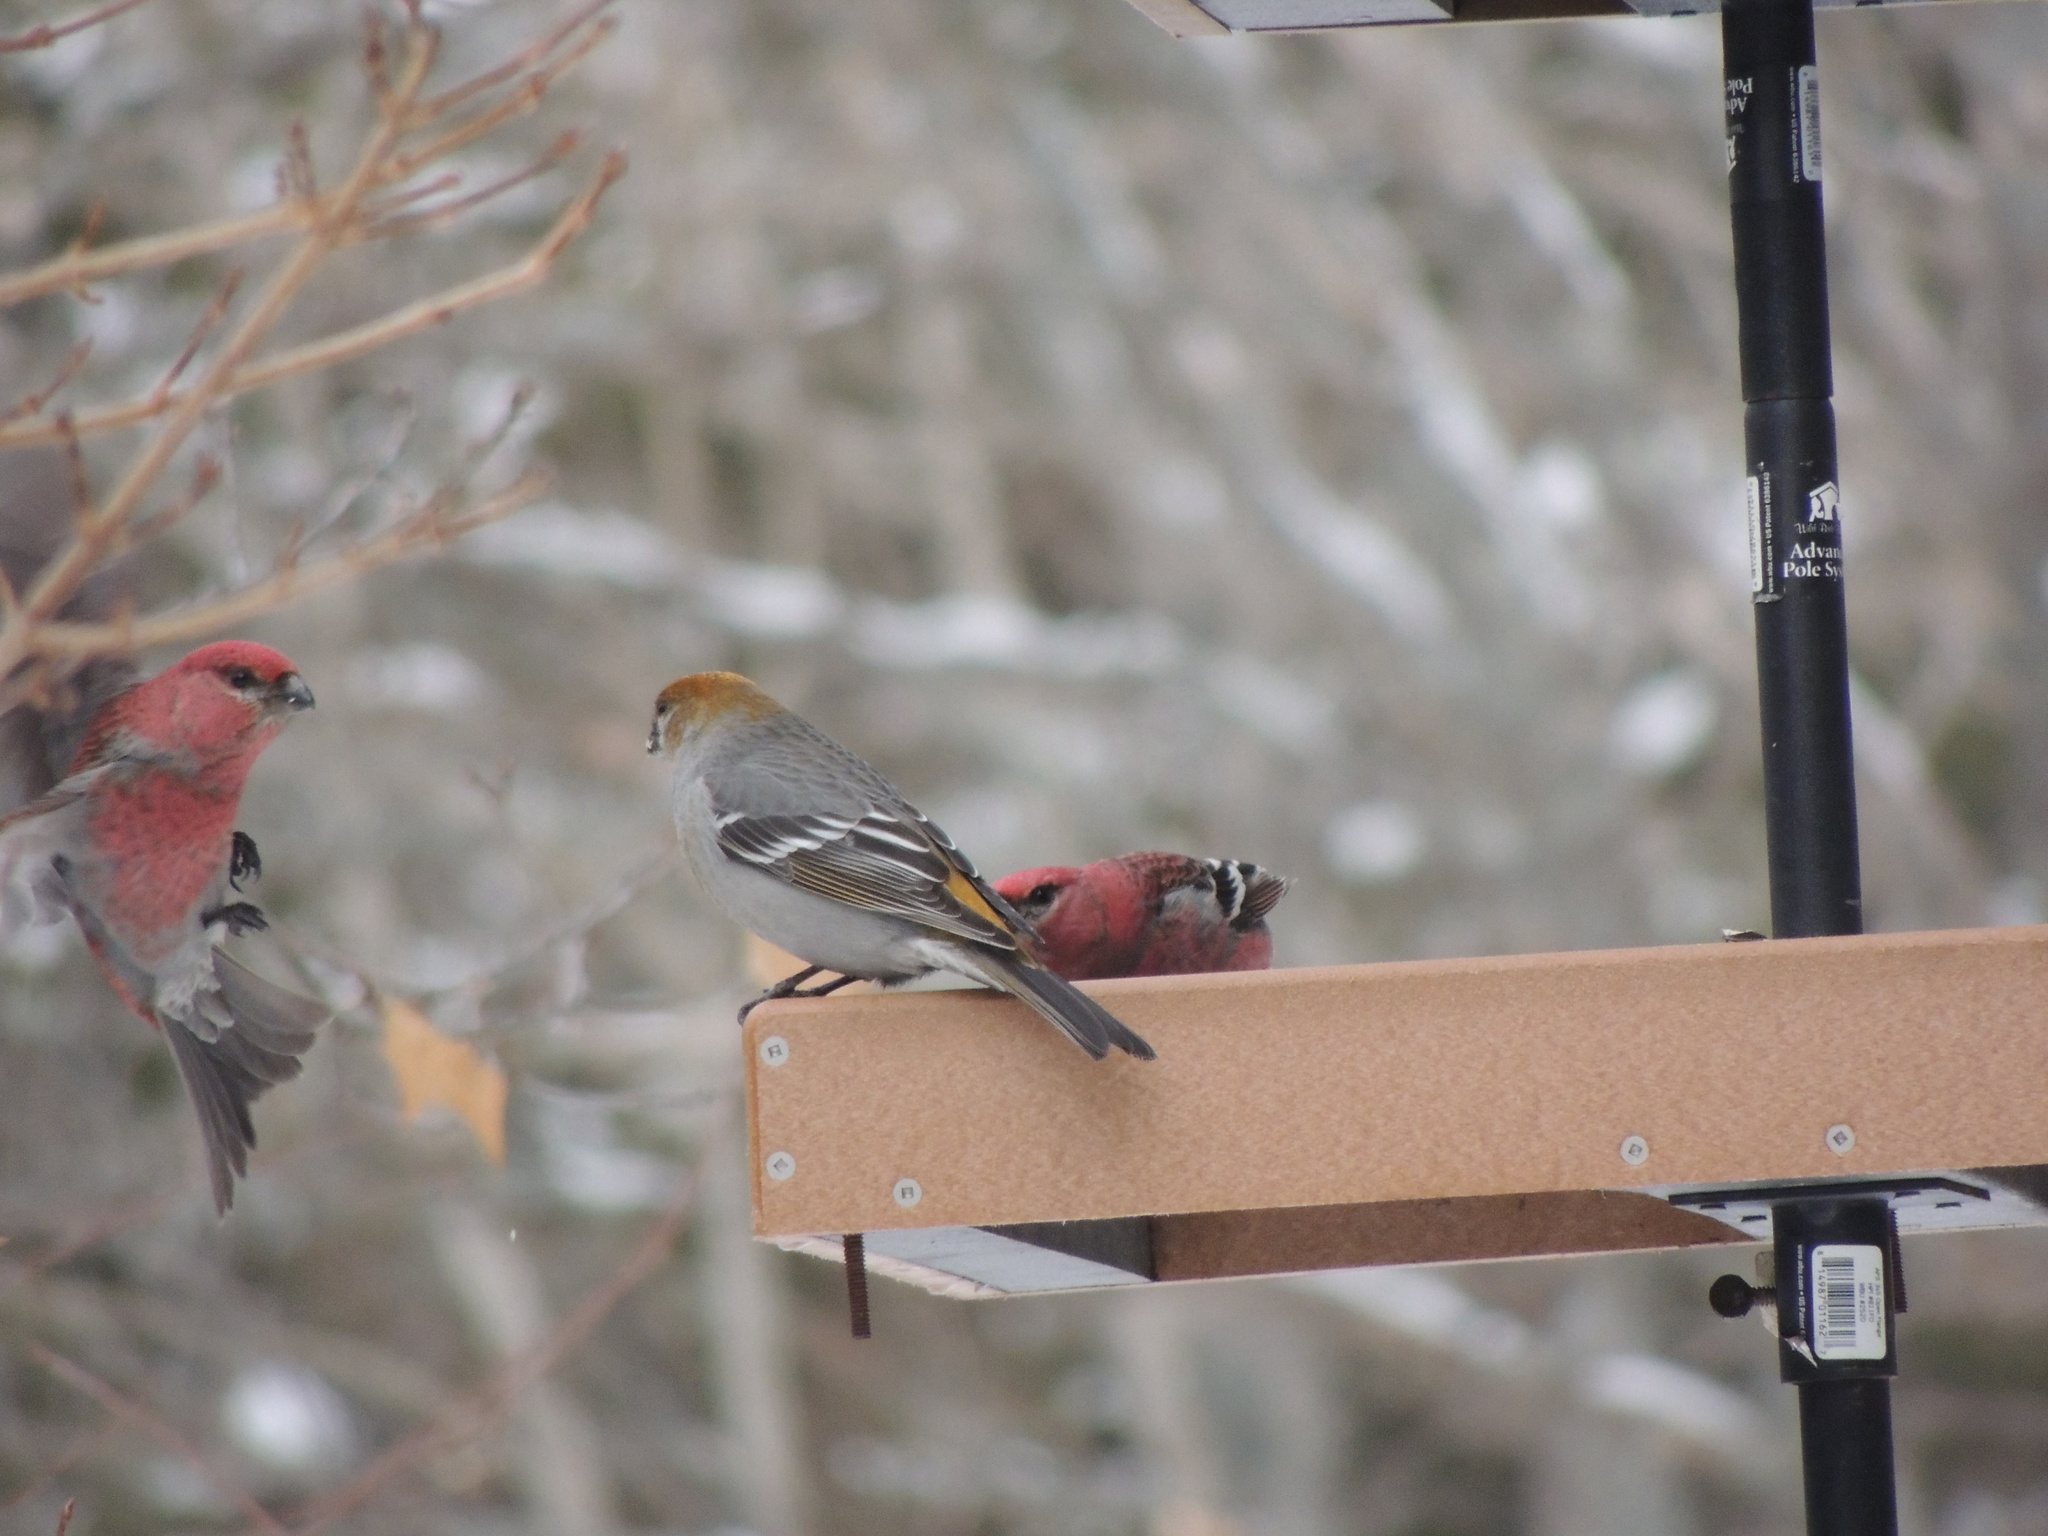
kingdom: Animalia
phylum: Chordata
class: Aves
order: Passeriformes
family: Fringillidae
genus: Pinicola
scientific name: Pinicola enucleator
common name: Pine grosbeak
